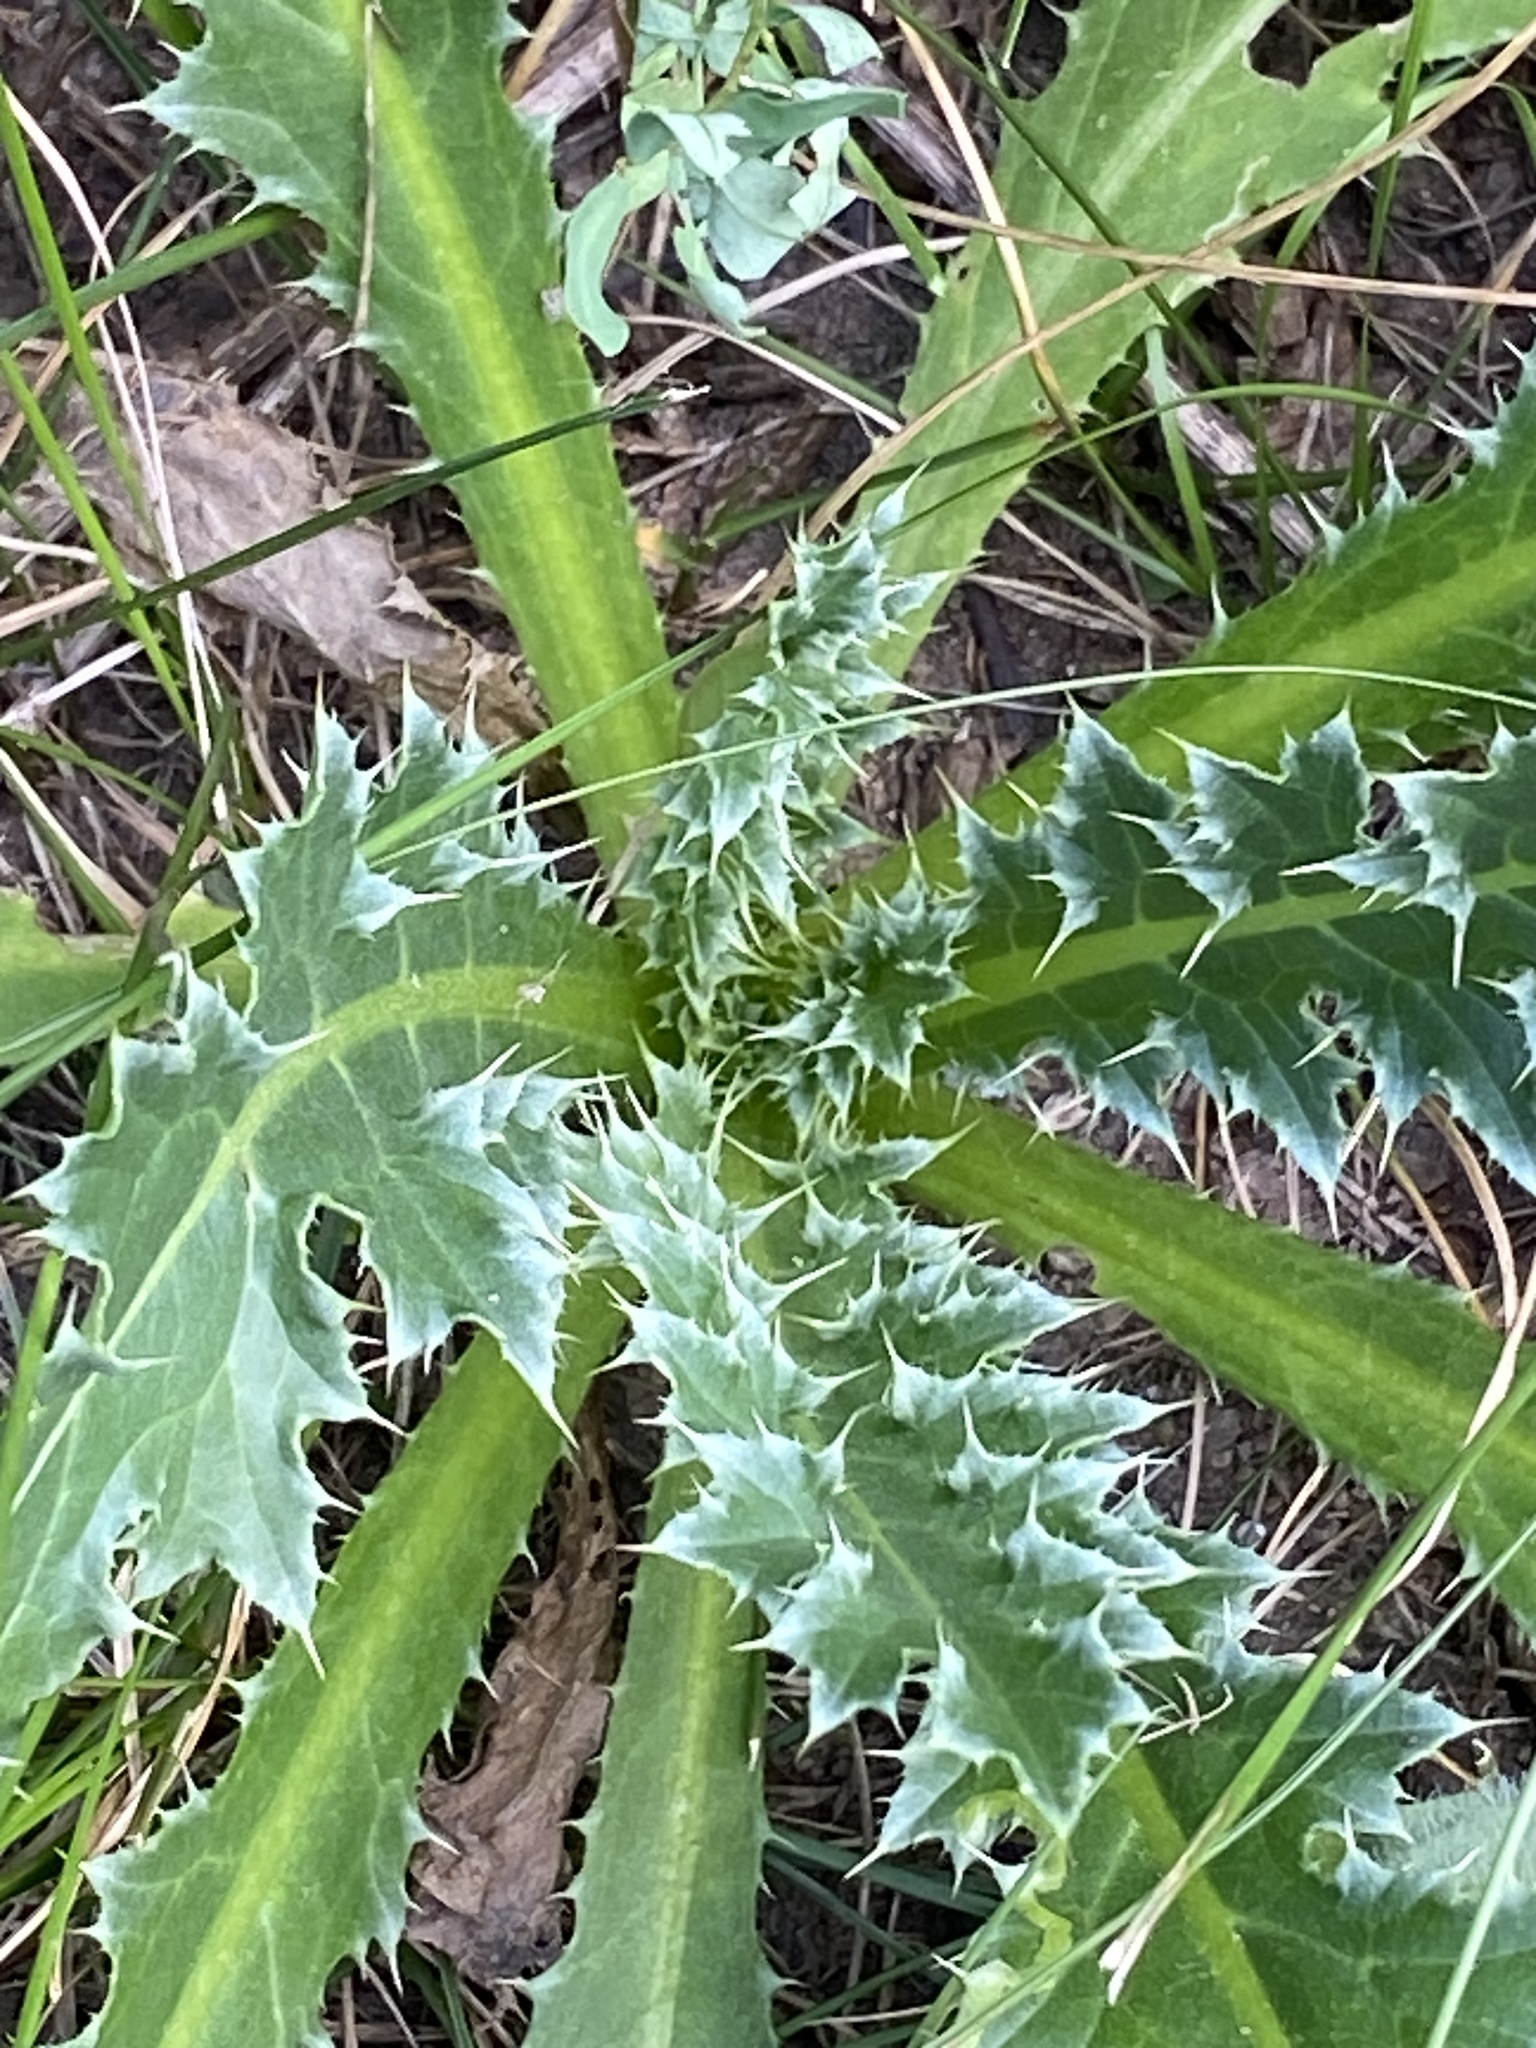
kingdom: Plantae
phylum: Tracheophyta
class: Magnoliopsida
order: Asterales
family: Asteraceae
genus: Carduus
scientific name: Carduus nutans
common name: Musk thistle
